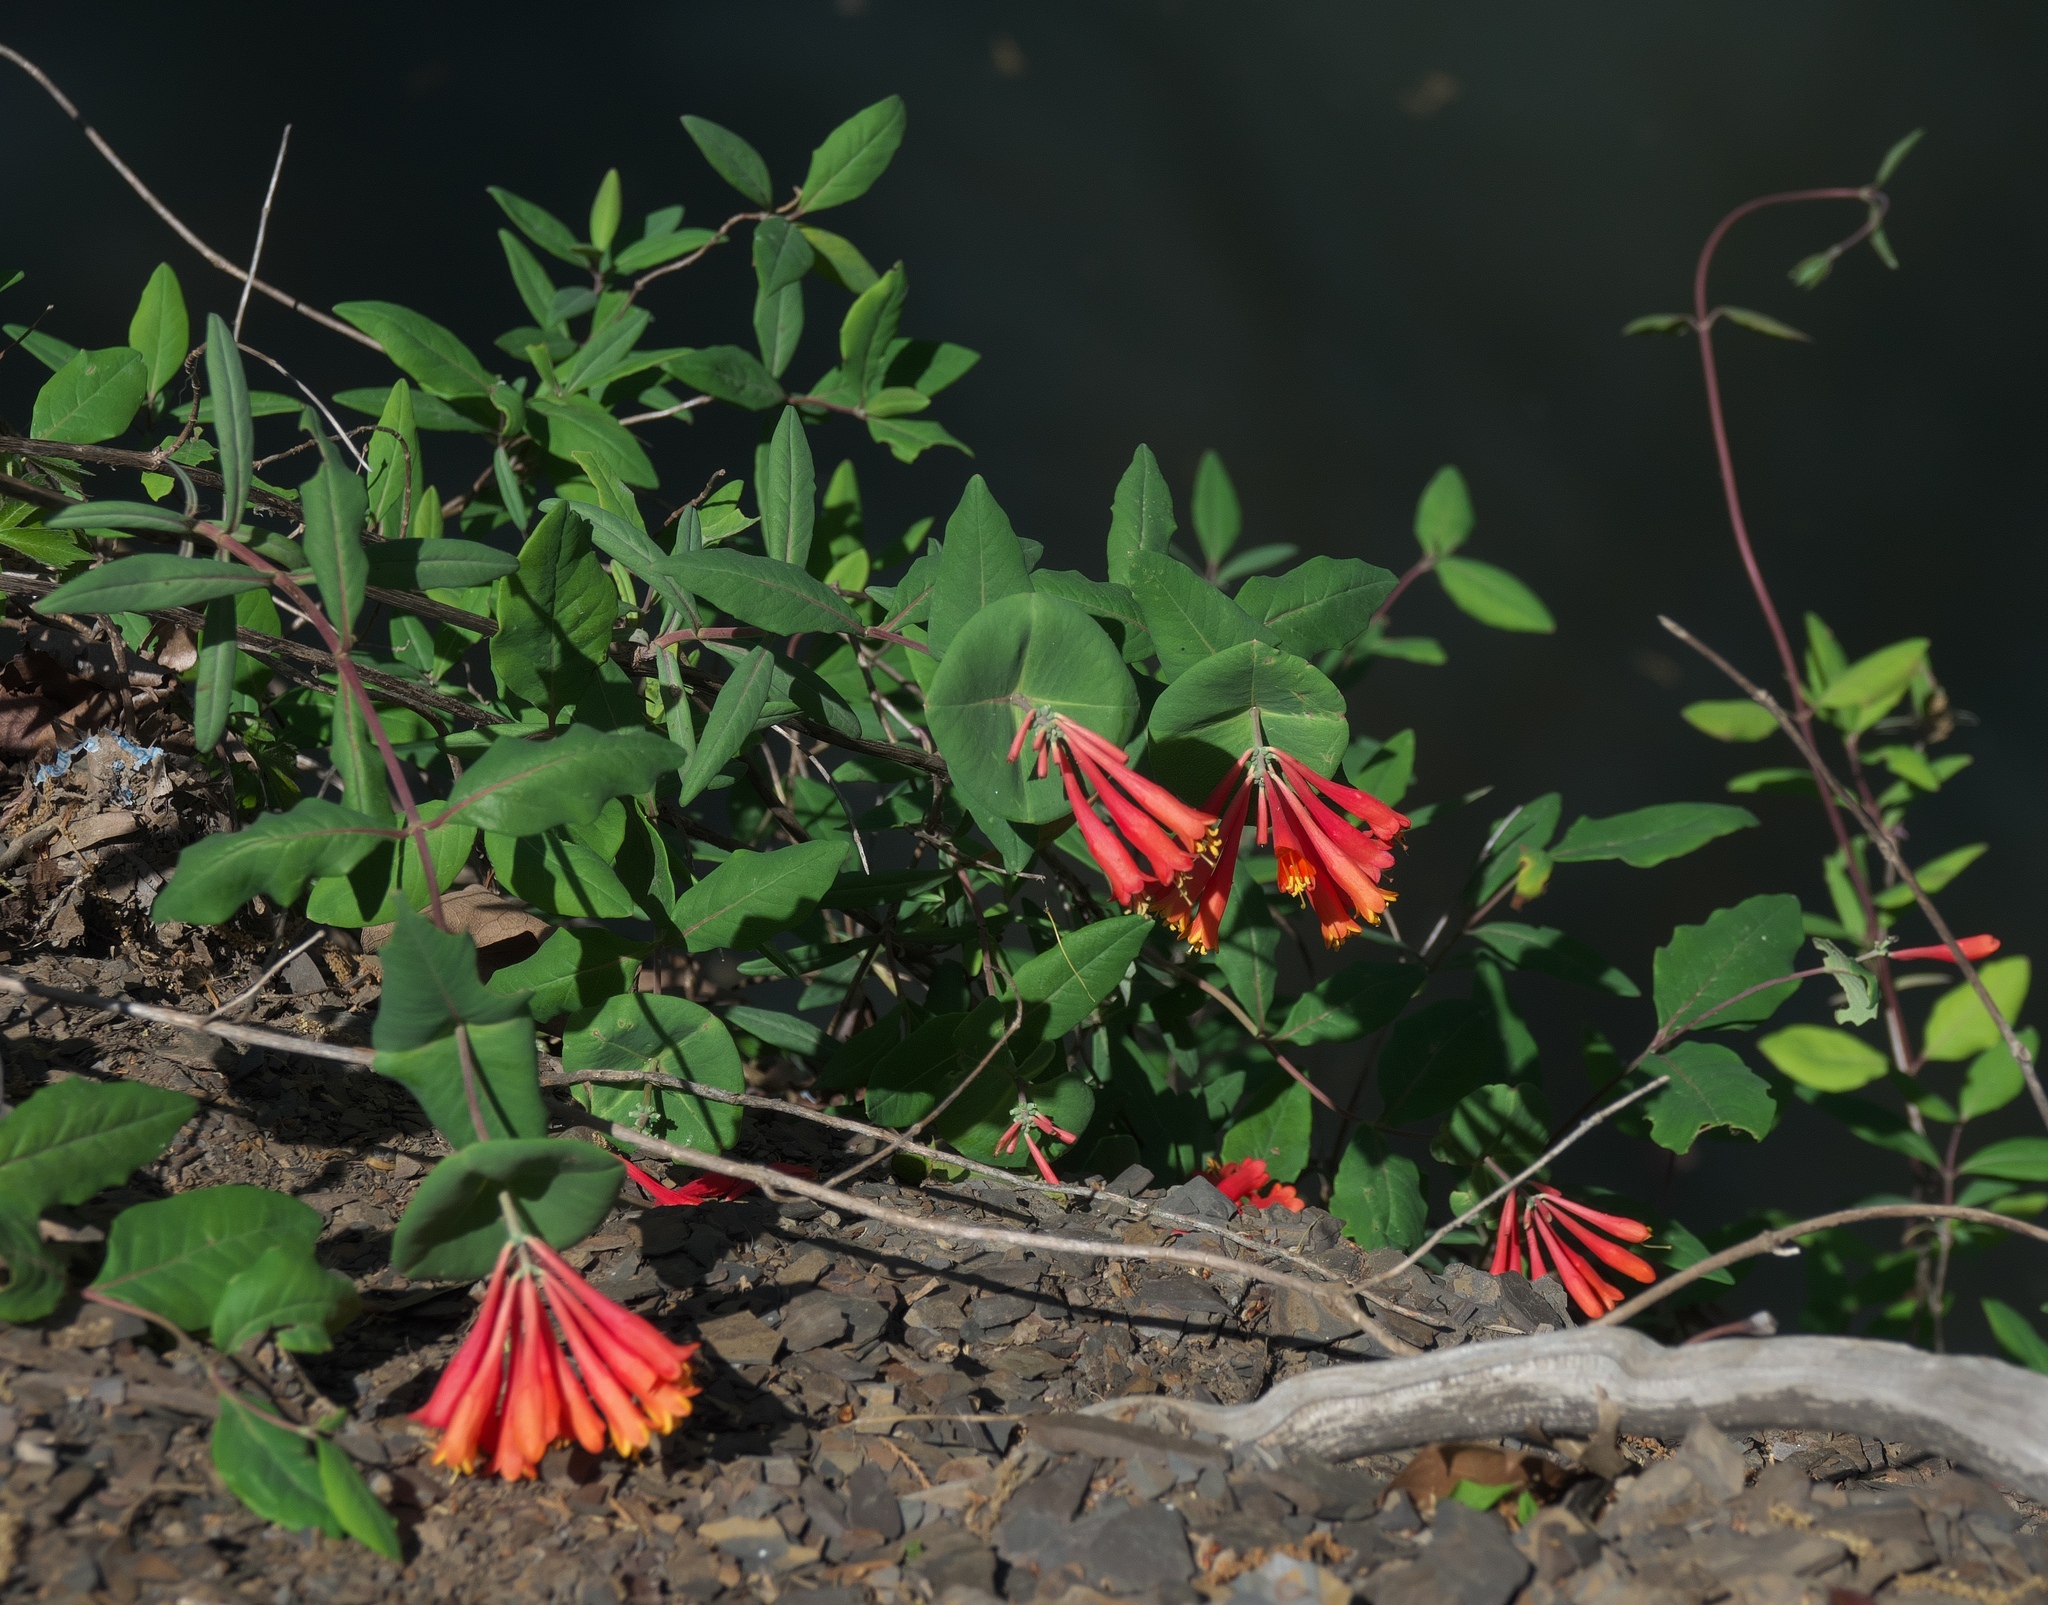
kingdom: Plantae
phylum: Tracheophyta
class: Magnoliopsida
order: Dipsacales
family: Caprifoliaceae
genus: Lonicera
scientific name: Lonicera sempervirens
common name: Coral honeysuckle
